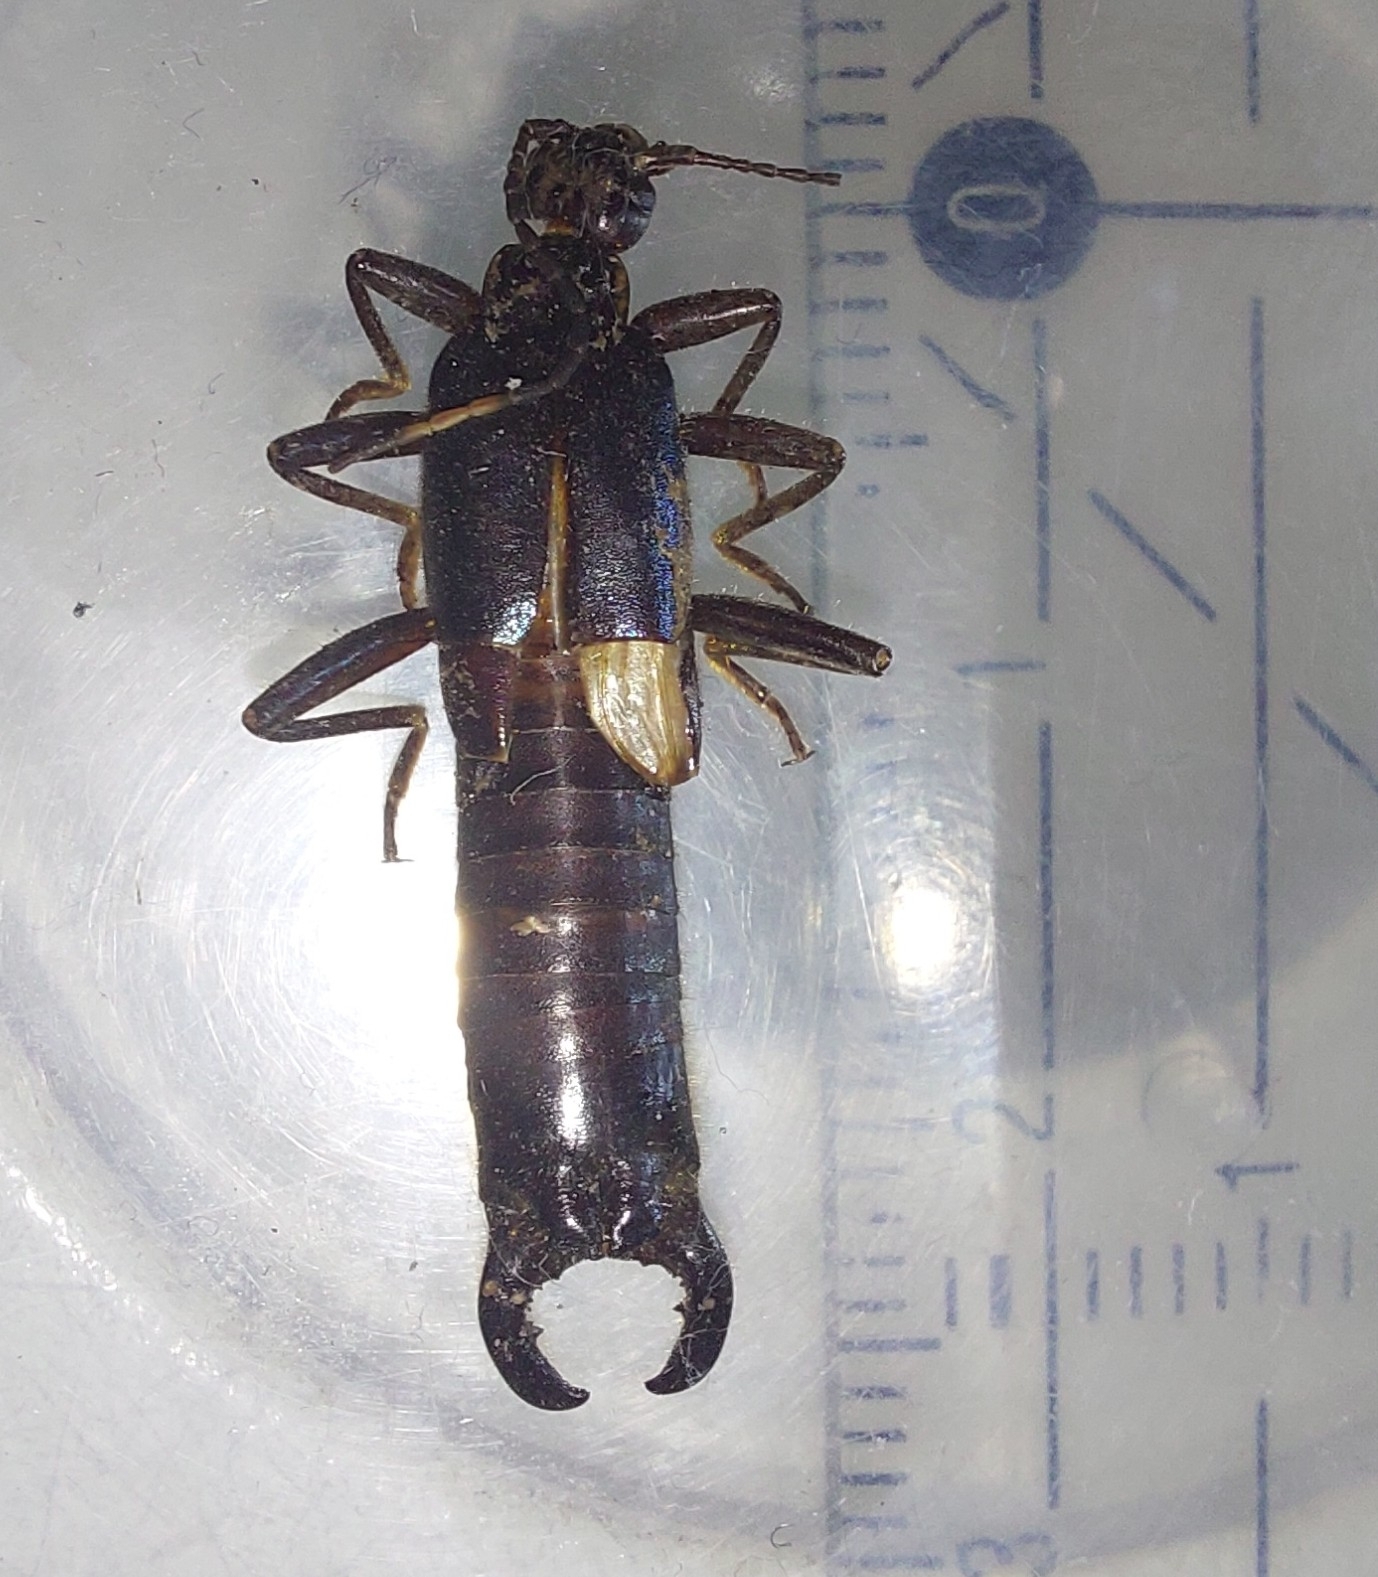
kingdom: Animalia
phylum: Arthropoda
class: Insecta
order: Dermaptera
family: Chelisochidae
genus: Adiathetus
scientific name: Adiathetus shelfordi
